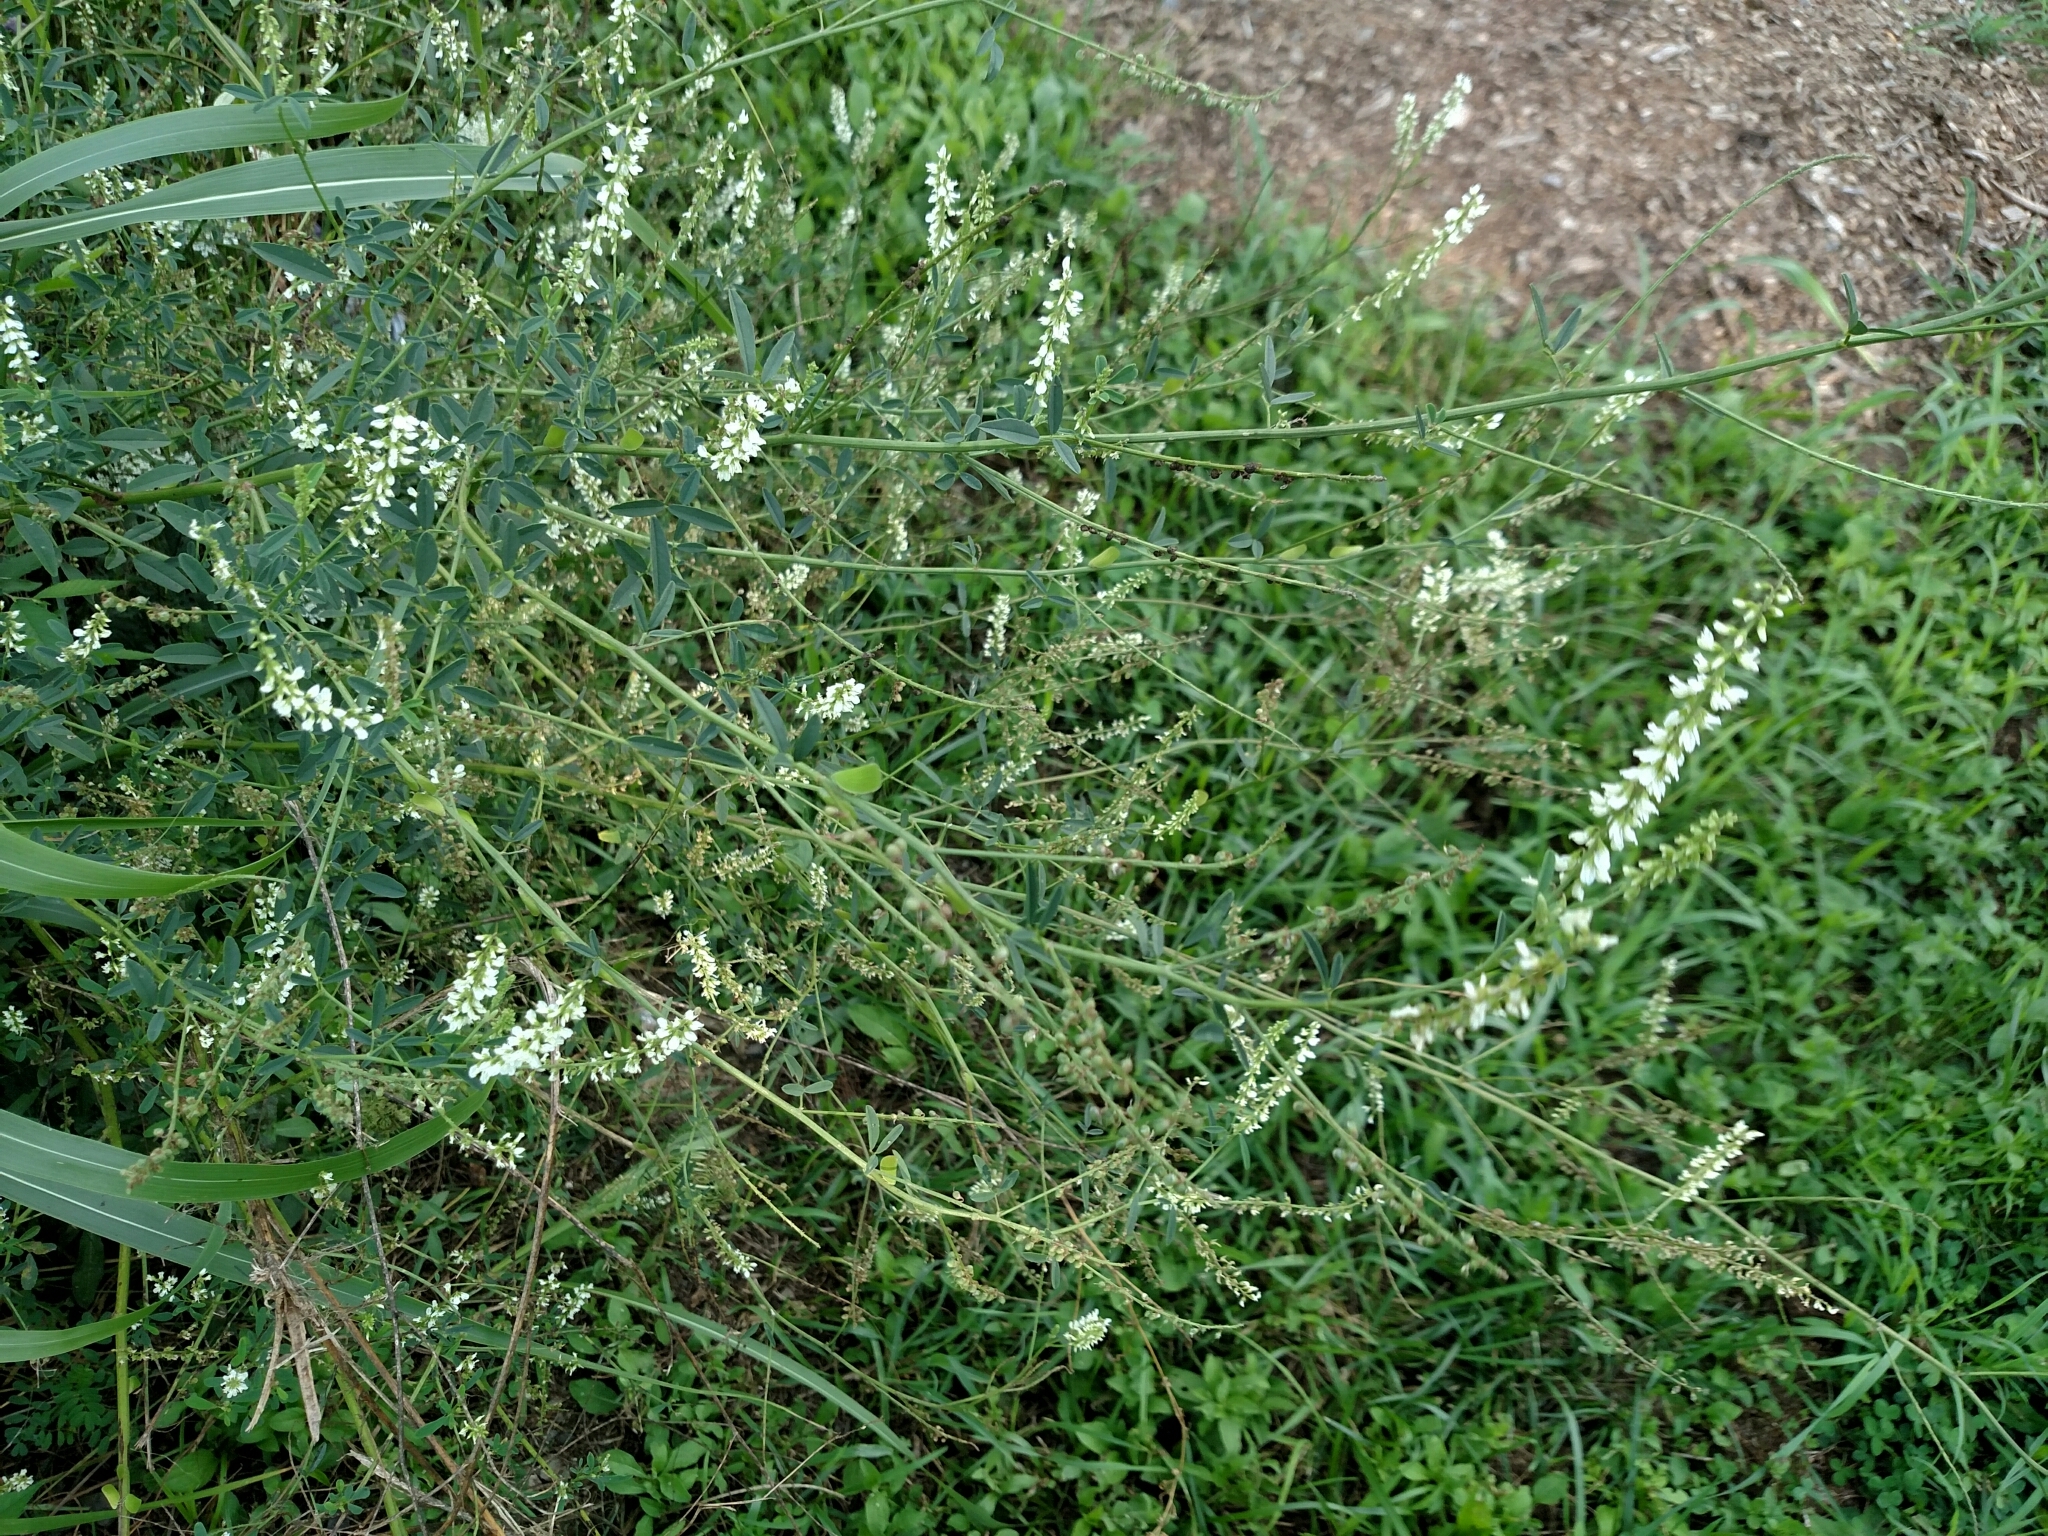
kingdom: Plantae
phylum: Tracheophyta
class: Magnoliopsida
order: Fabales
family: Fabaceae
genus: Melilotus
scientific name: Melilotus albus
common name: White melilot
